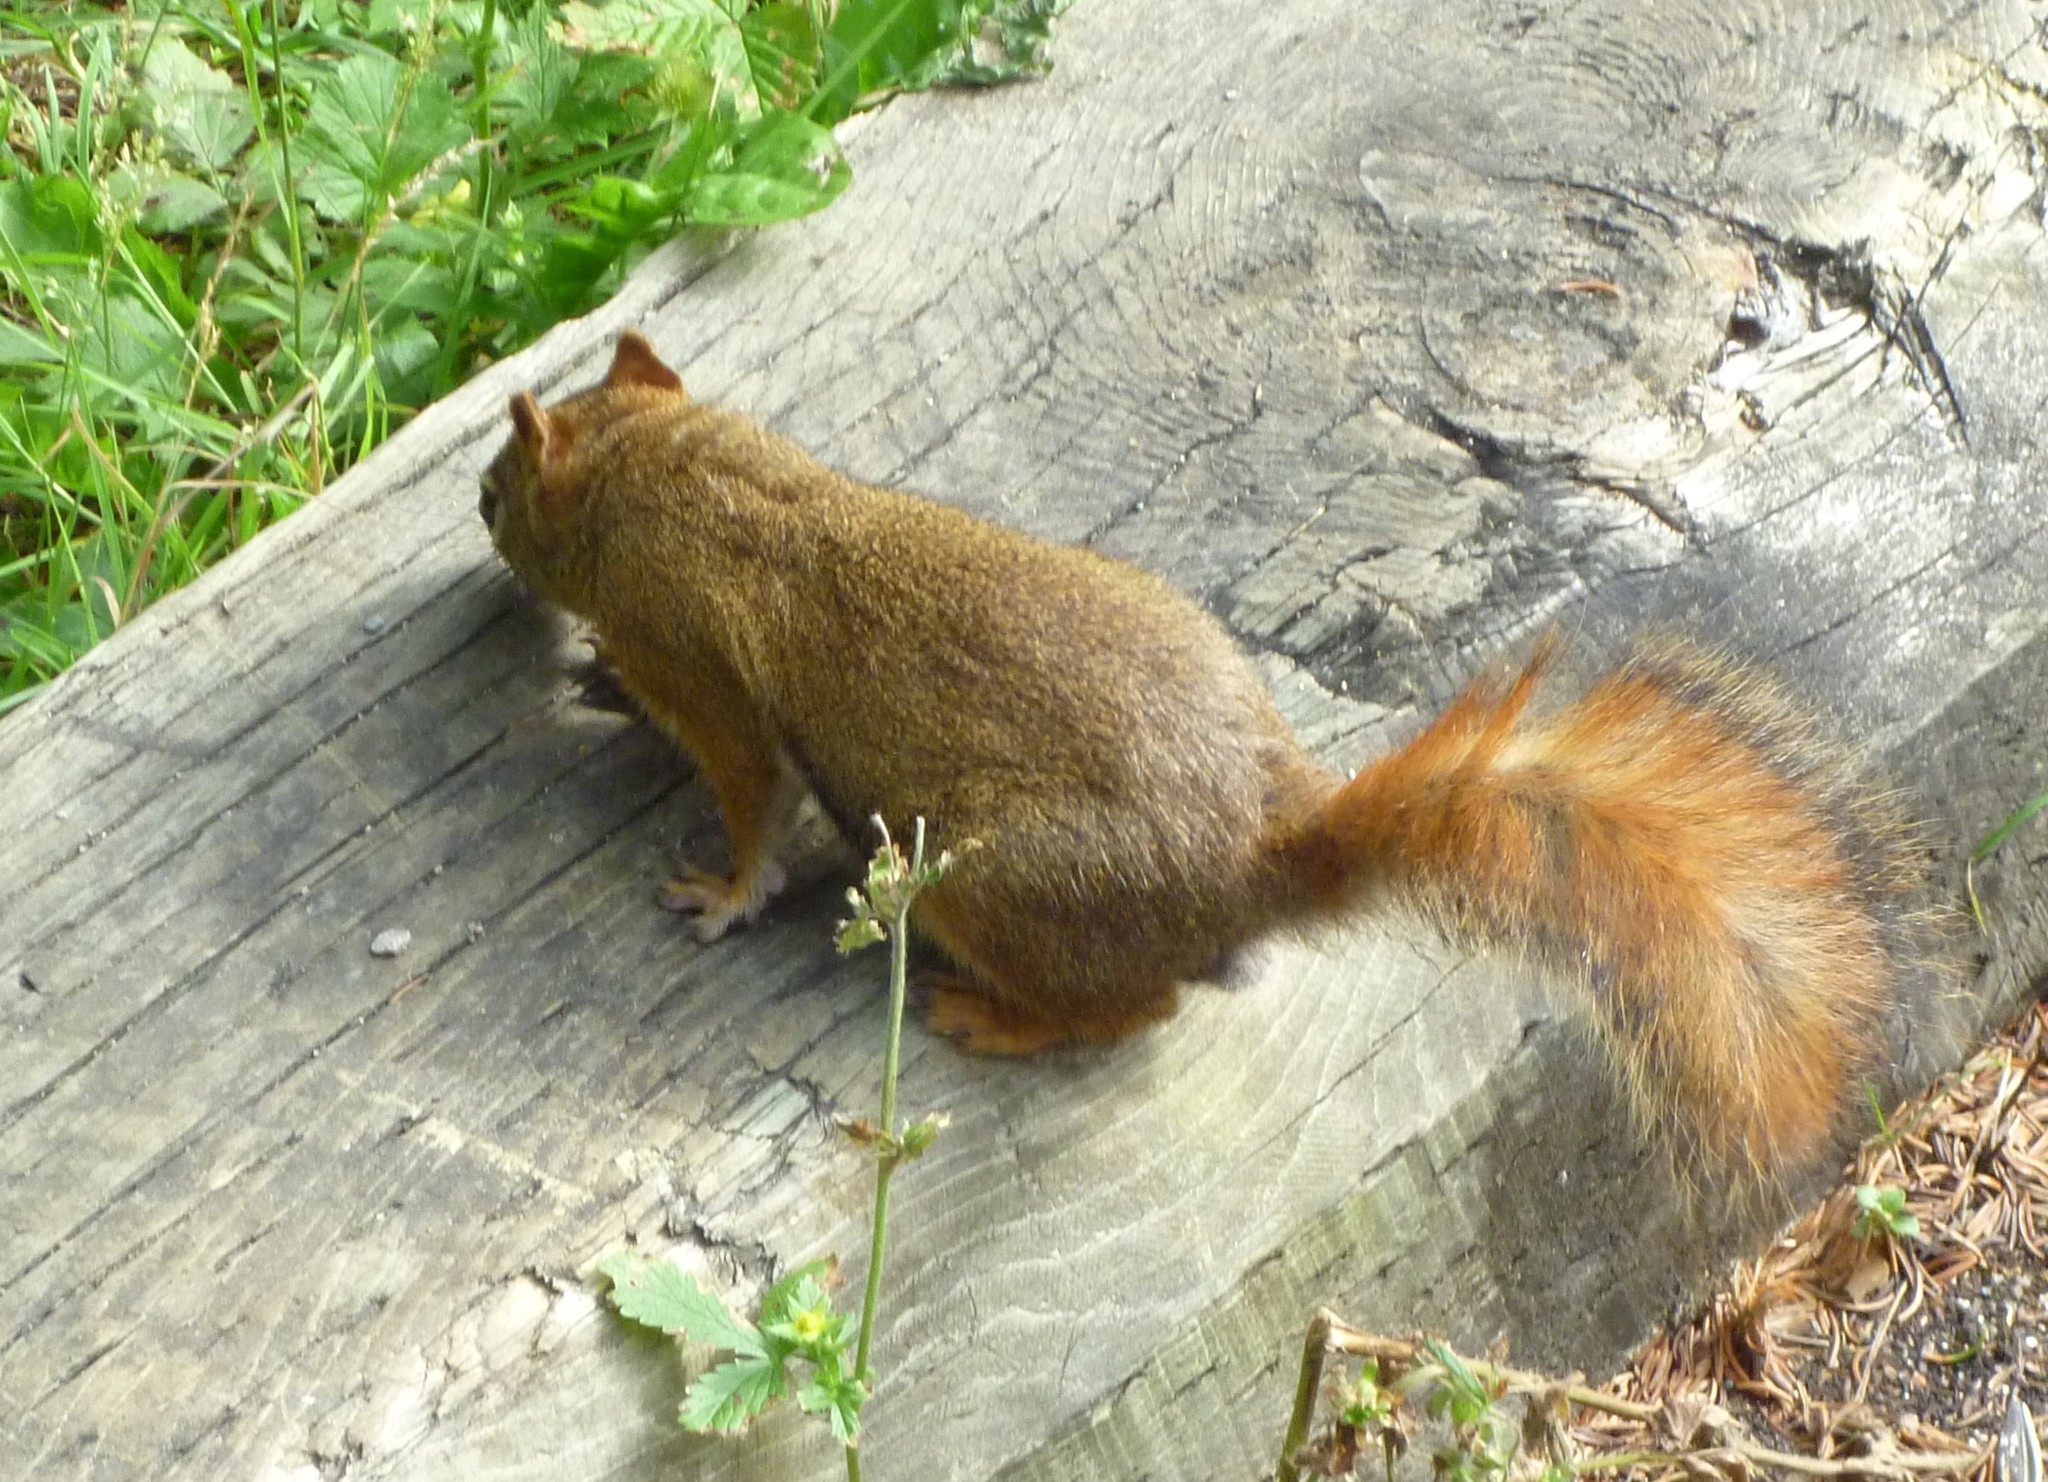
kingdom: Animalia
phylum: Chordata
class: Mammalia
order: Rodentia
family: Sciuridae
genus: Tamiasciurus
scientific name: Tamiasciurus hudsonicus
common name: Red squirrel
